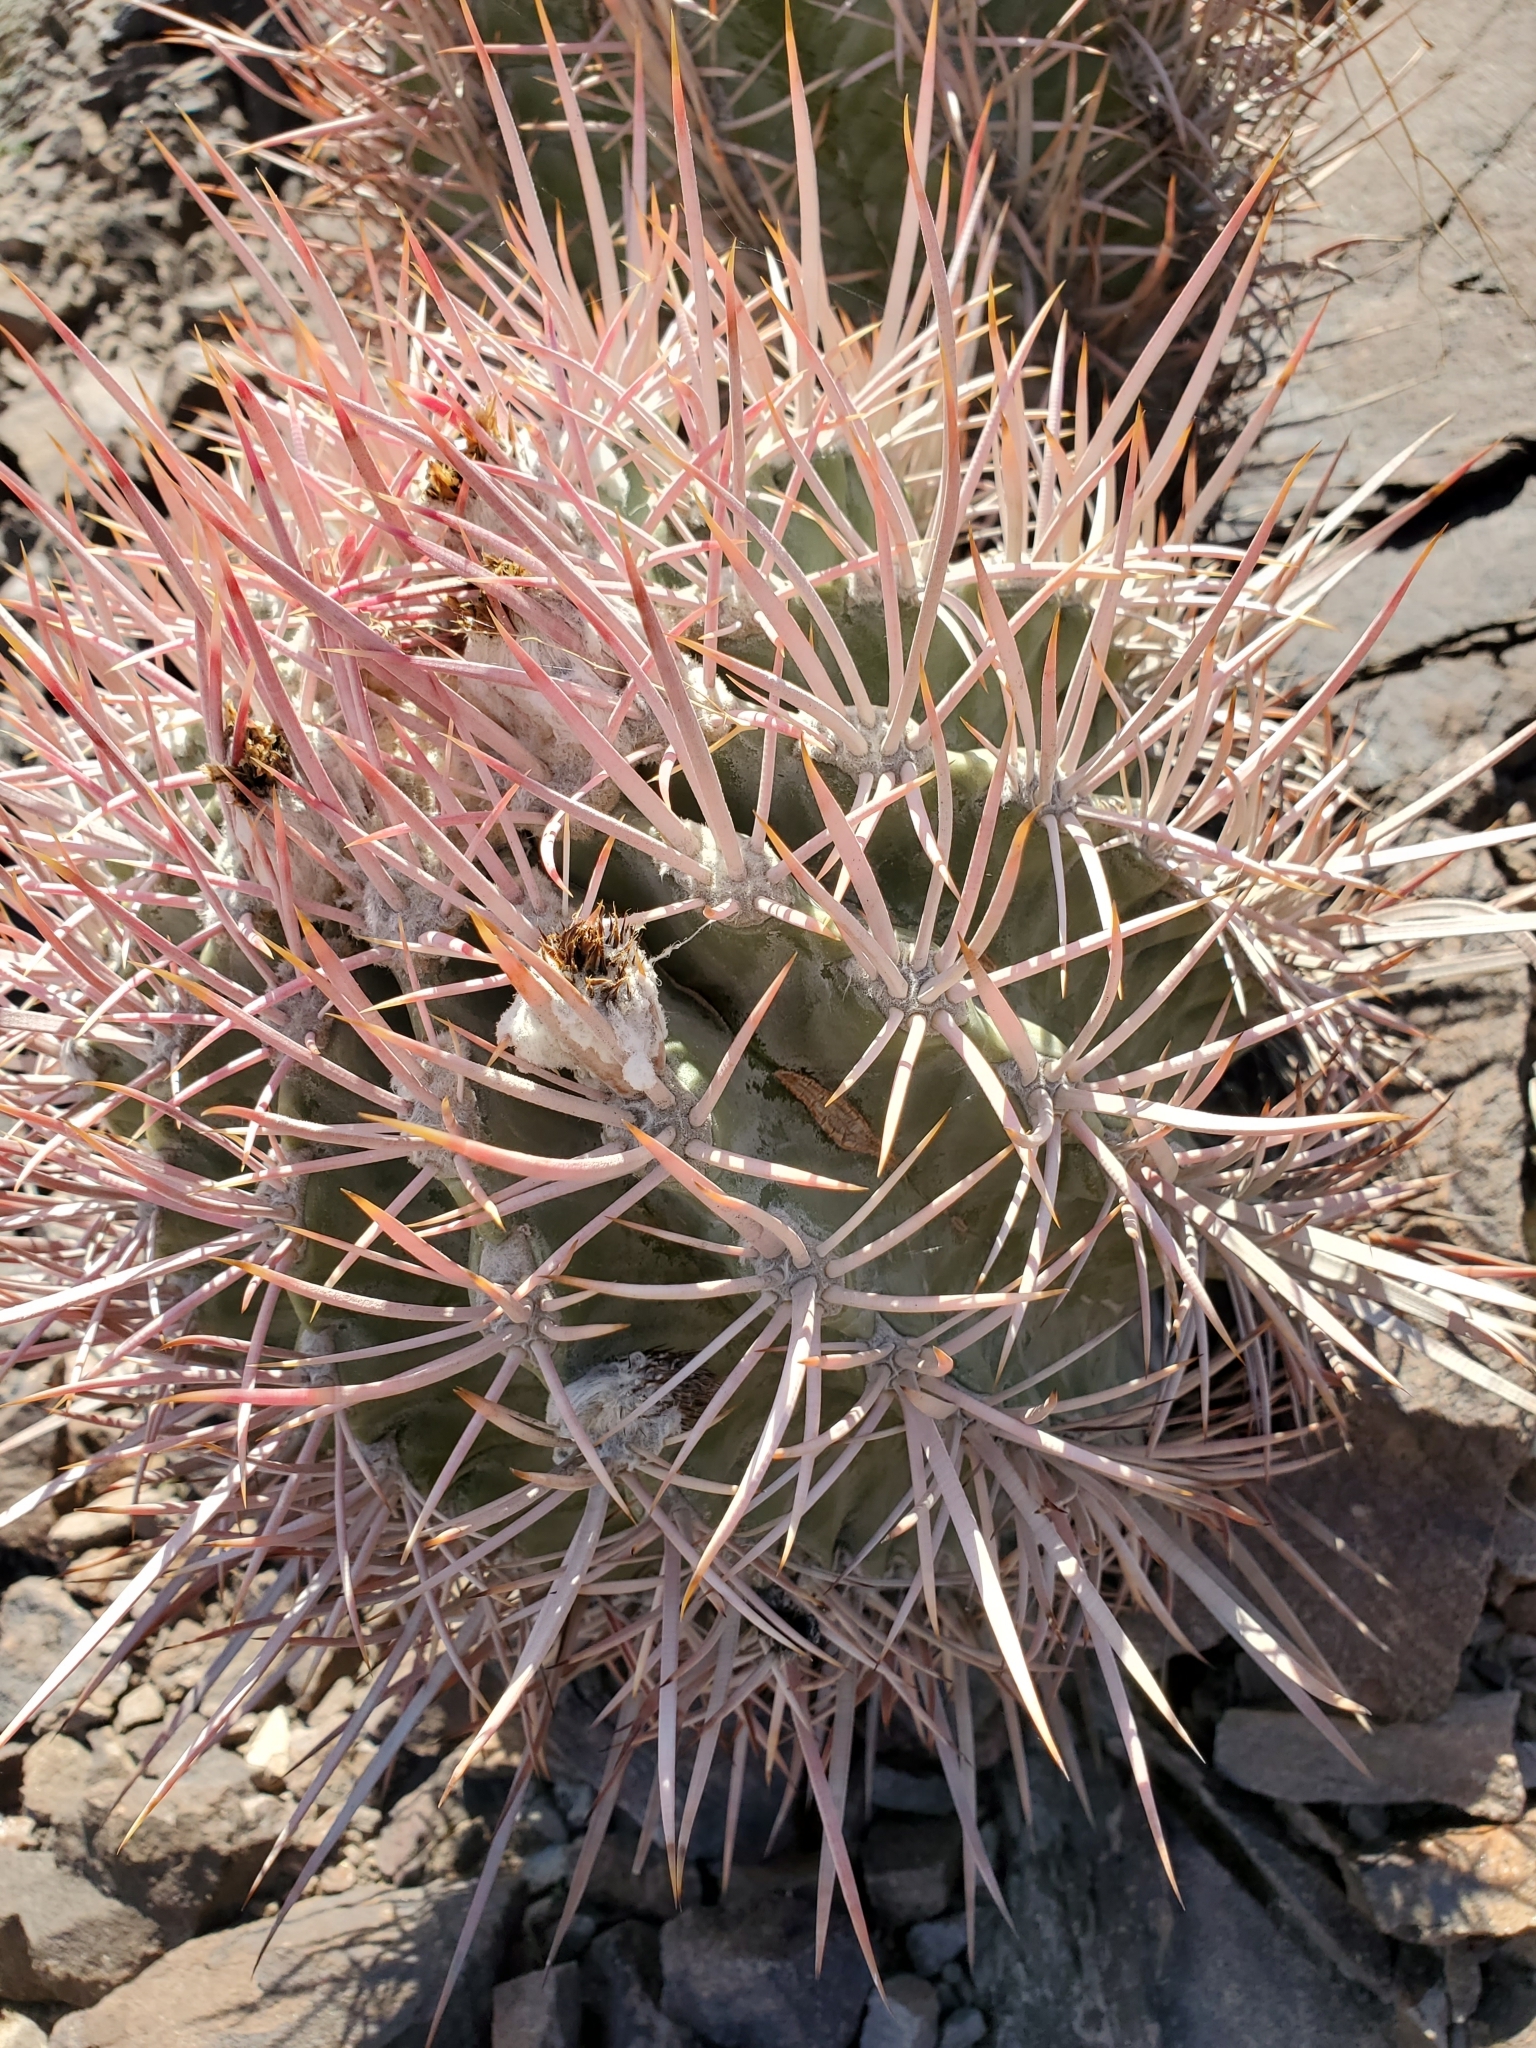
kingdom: Plantae
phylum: Tracheophyta
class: Magnoliopsida
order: Caryophyllales
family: Cactaceae
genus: Echinocactus
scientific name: Echinocactus polycephalus
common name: Cottontop cactus
